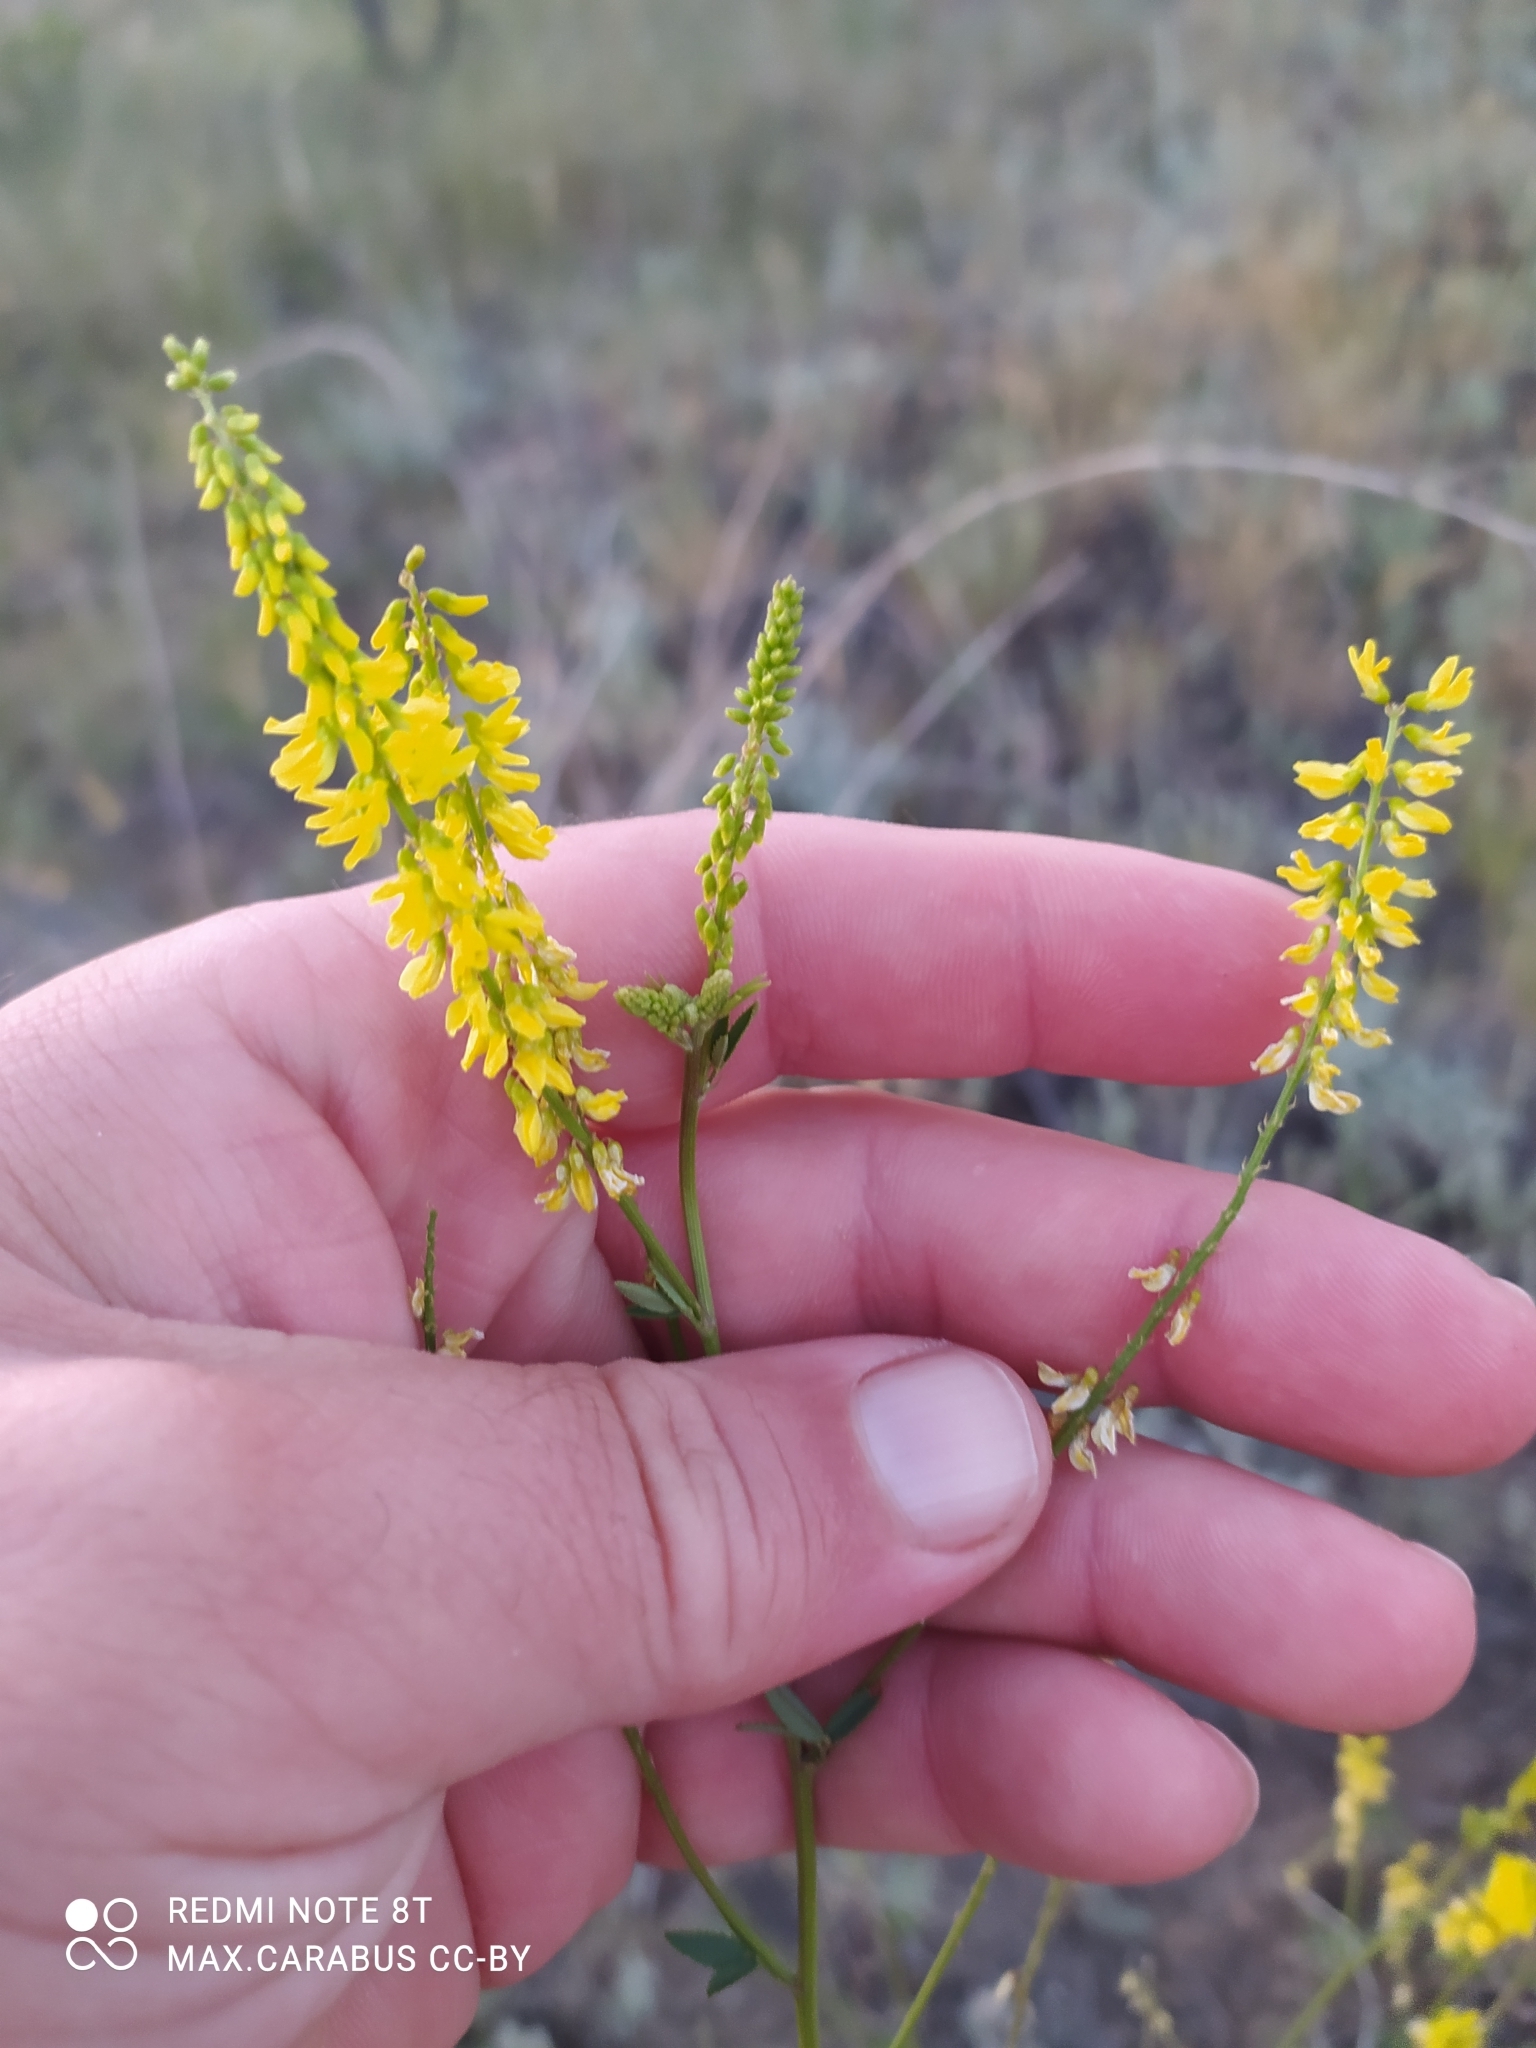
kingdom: Plantae
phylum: Tracheophyta
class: Magnoliopsida
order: Fabales
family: Fabaceae
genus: Melilotus
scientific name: Melilotus officinalis
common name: Sweetclover
